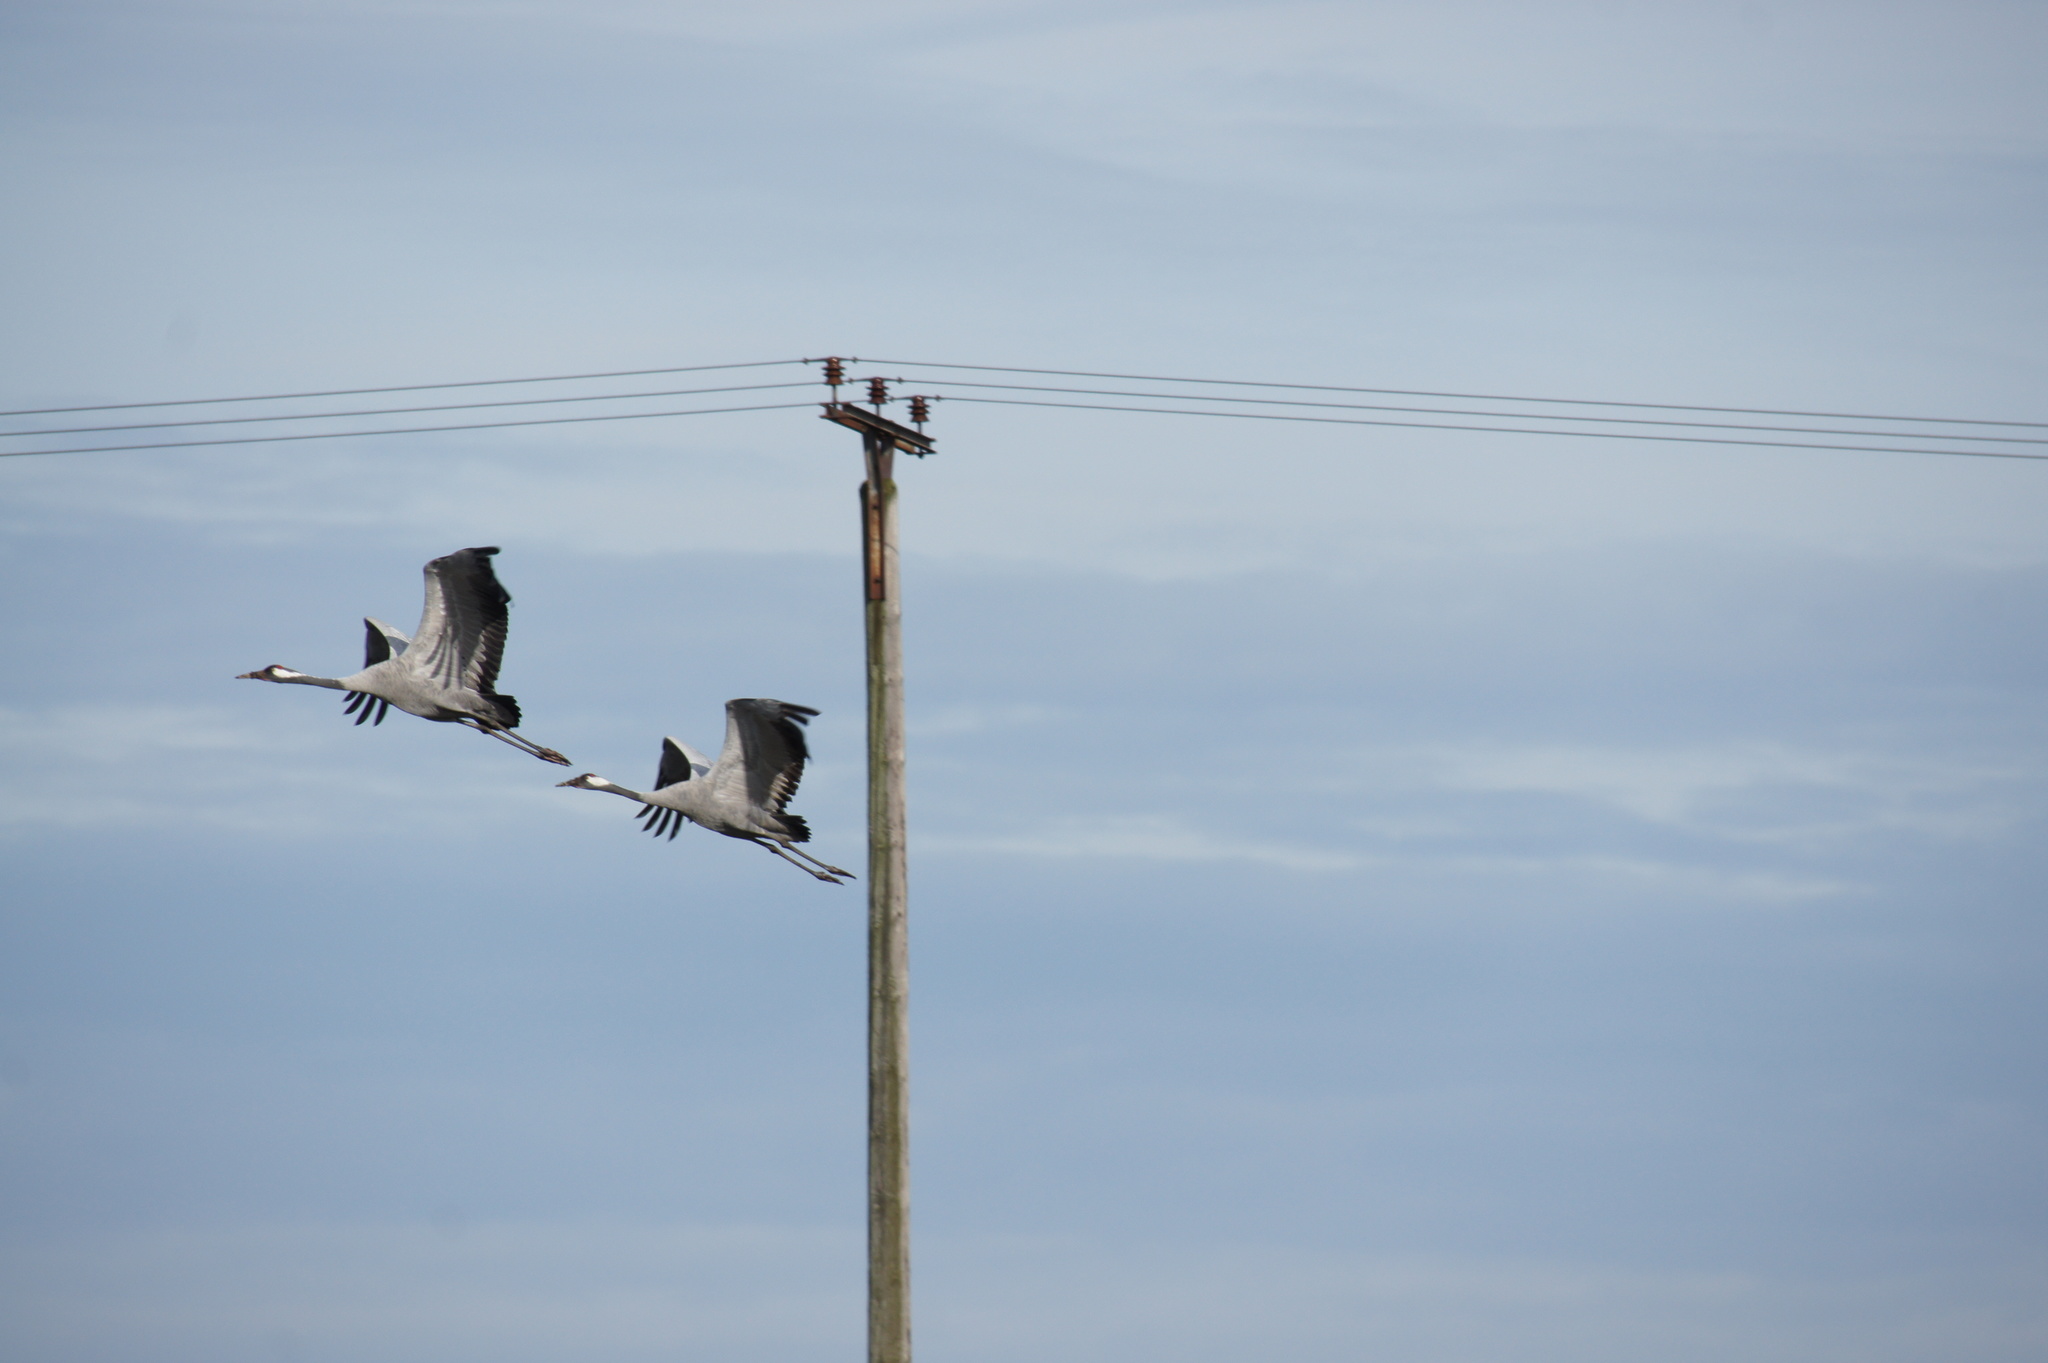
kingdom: Animalia
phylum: Chordata
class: Aves
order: Gruiformes
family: Gruidae
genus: Grus
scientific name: Grus grus
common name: Common crane
